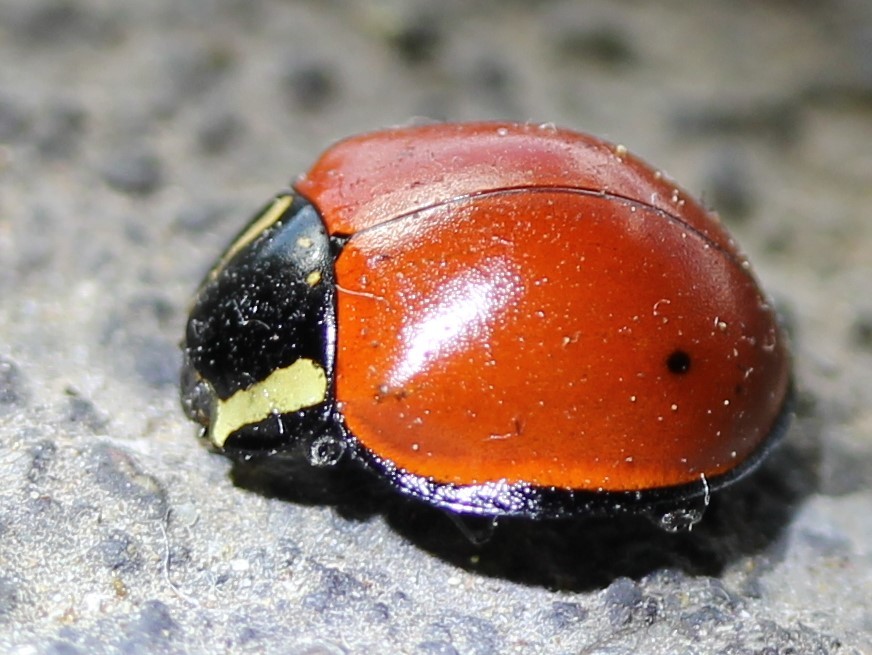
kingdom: Animalia
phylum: Arthropoda
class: Insecta
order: Coleoptera
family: Coccinellidae
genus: Anatis
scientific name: Anatis lecontei
